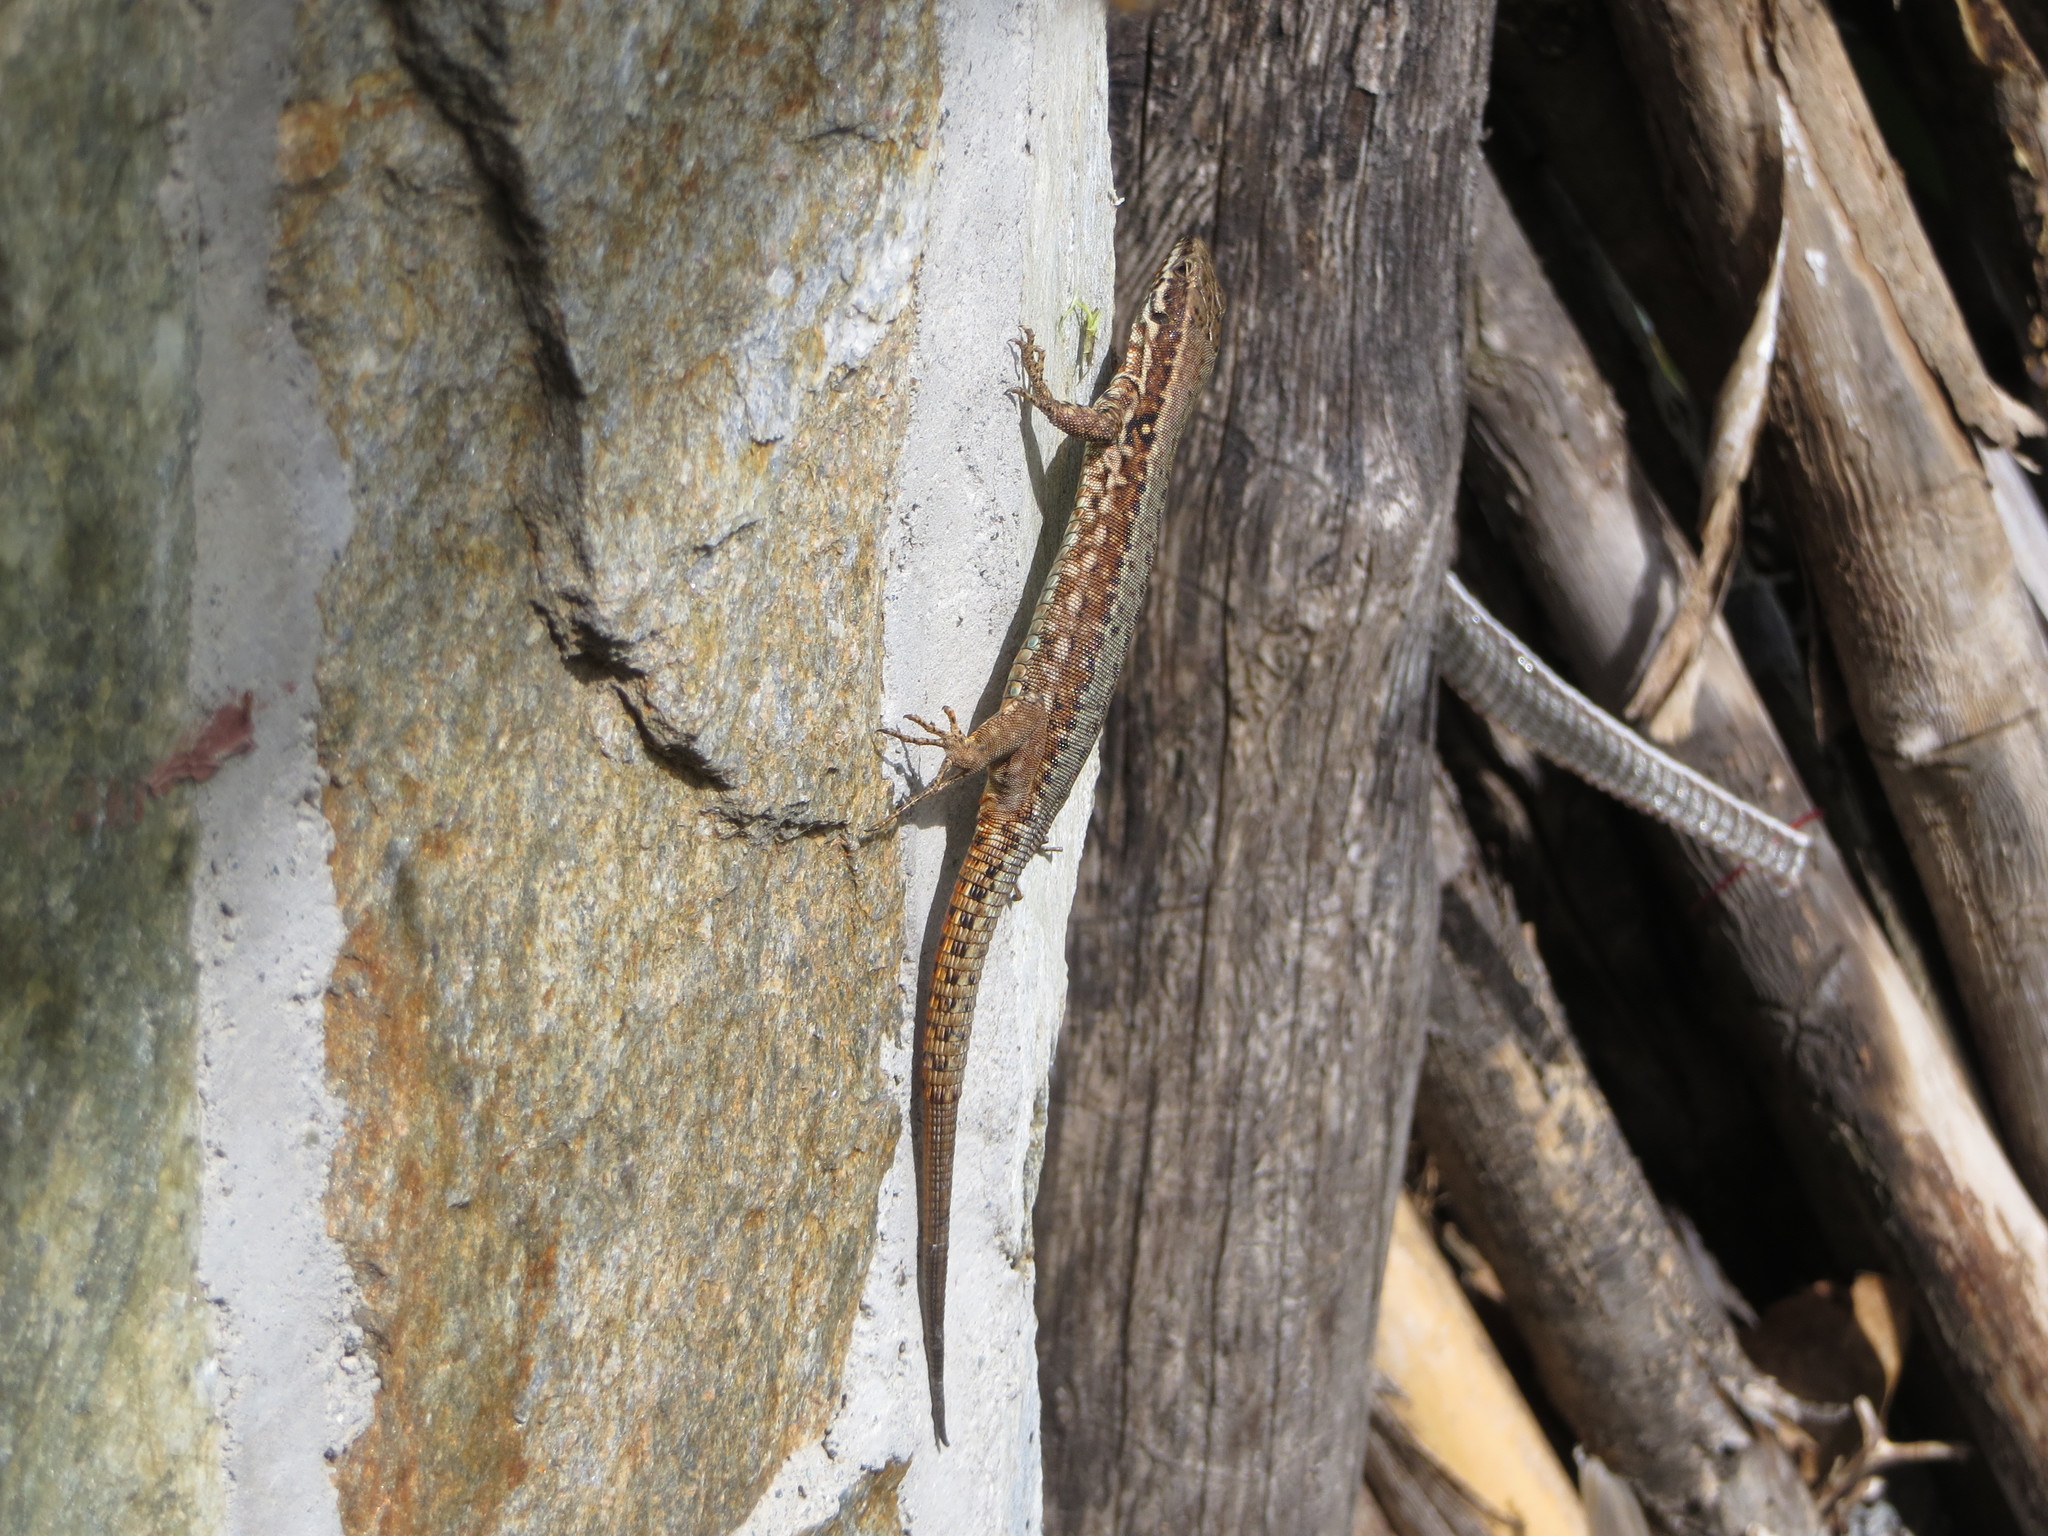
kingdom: Animalia
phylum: Chordata
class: Squamata
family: Lacertidae
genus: Podarcis
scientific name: Podarcis muralis
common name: Common wall lizard
